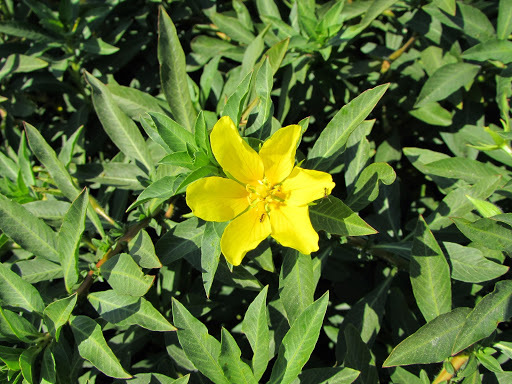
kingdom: Plantae
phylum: Tracheophyta
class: Magnoliopsida
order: Myrtales
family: Onagraceae
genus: Ludwigia
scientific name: Ludwigia hexapetala
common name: Water-primrose
